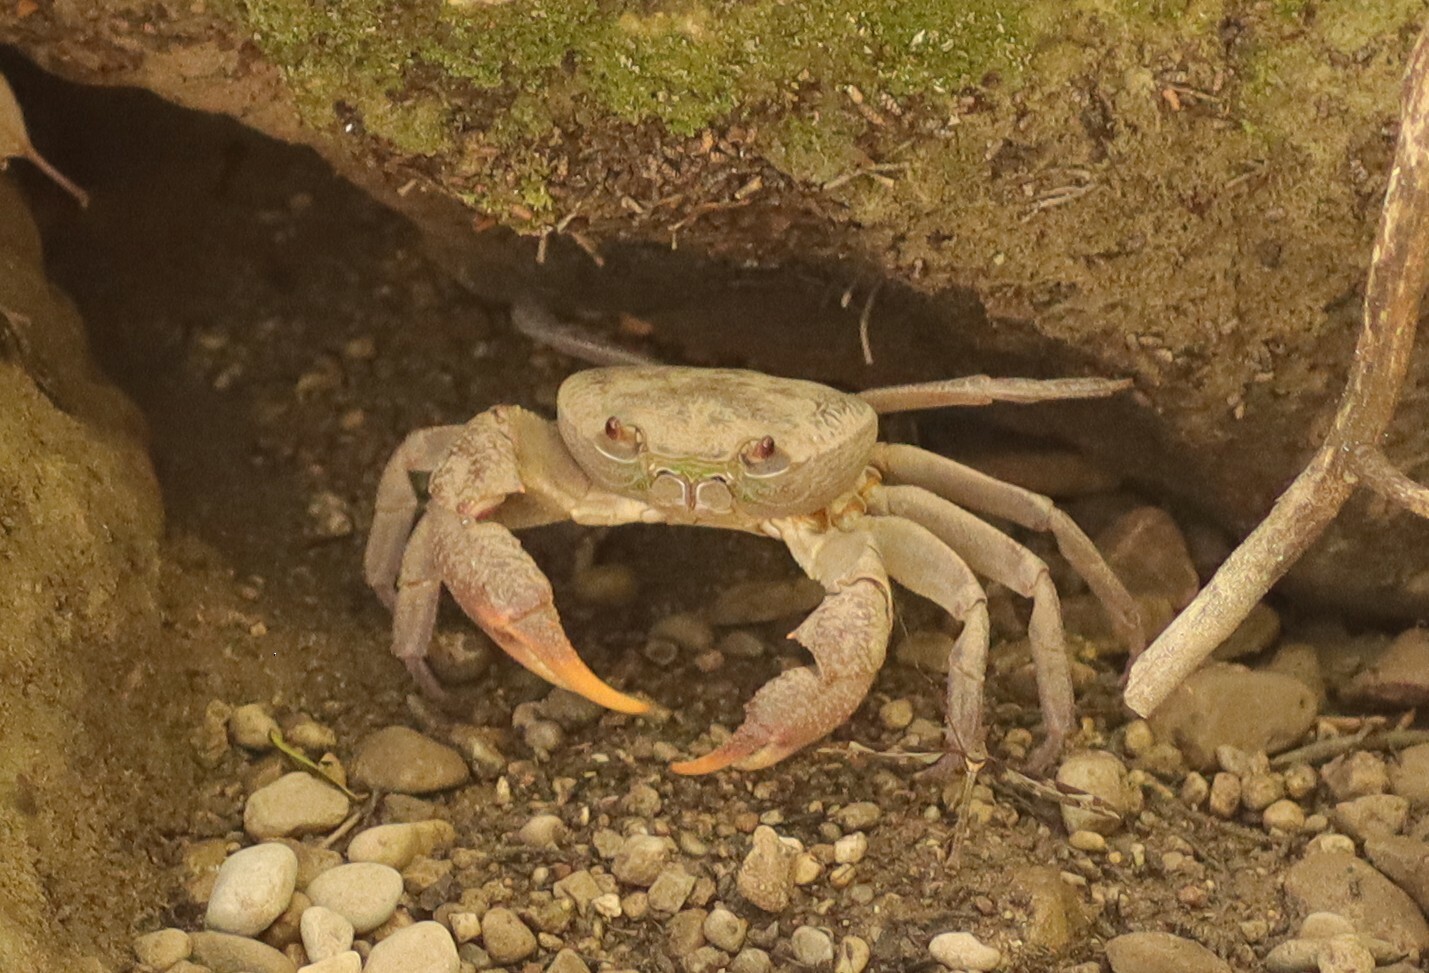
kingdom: Animalia
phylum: Arthropoda
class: Malacostraca
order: Decapoda
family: Potamidae
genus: Potamon
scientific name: Potamon rhodium
